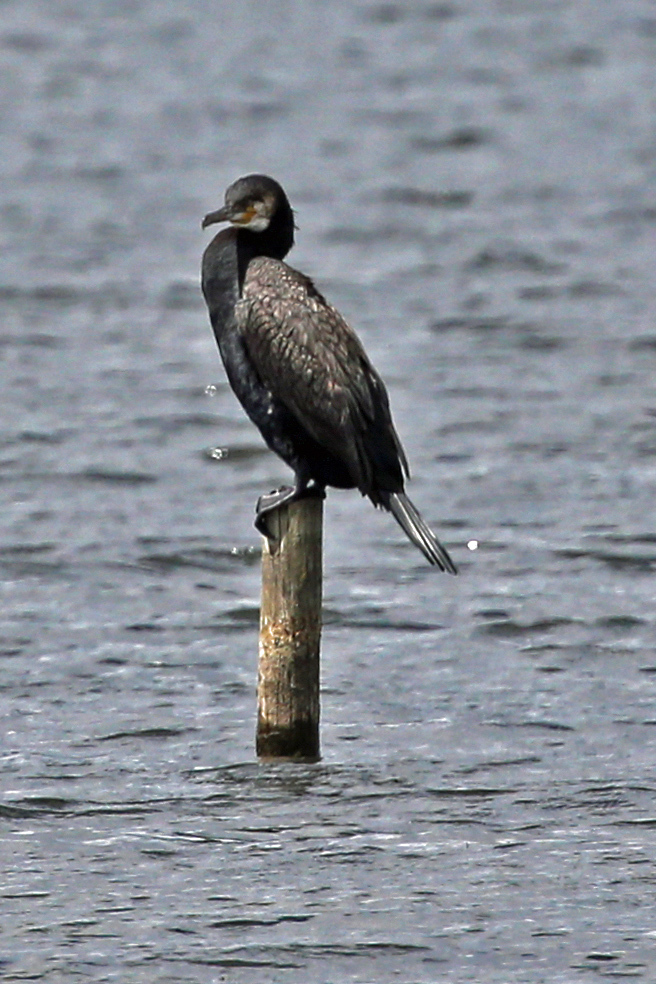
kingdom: Animalia
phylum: Chordata
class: Aves
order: Suliformes
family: Phalacrocoracidae
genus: Phalacrocorax
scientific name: Phalacrocorax carbo
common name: Great cormorant
